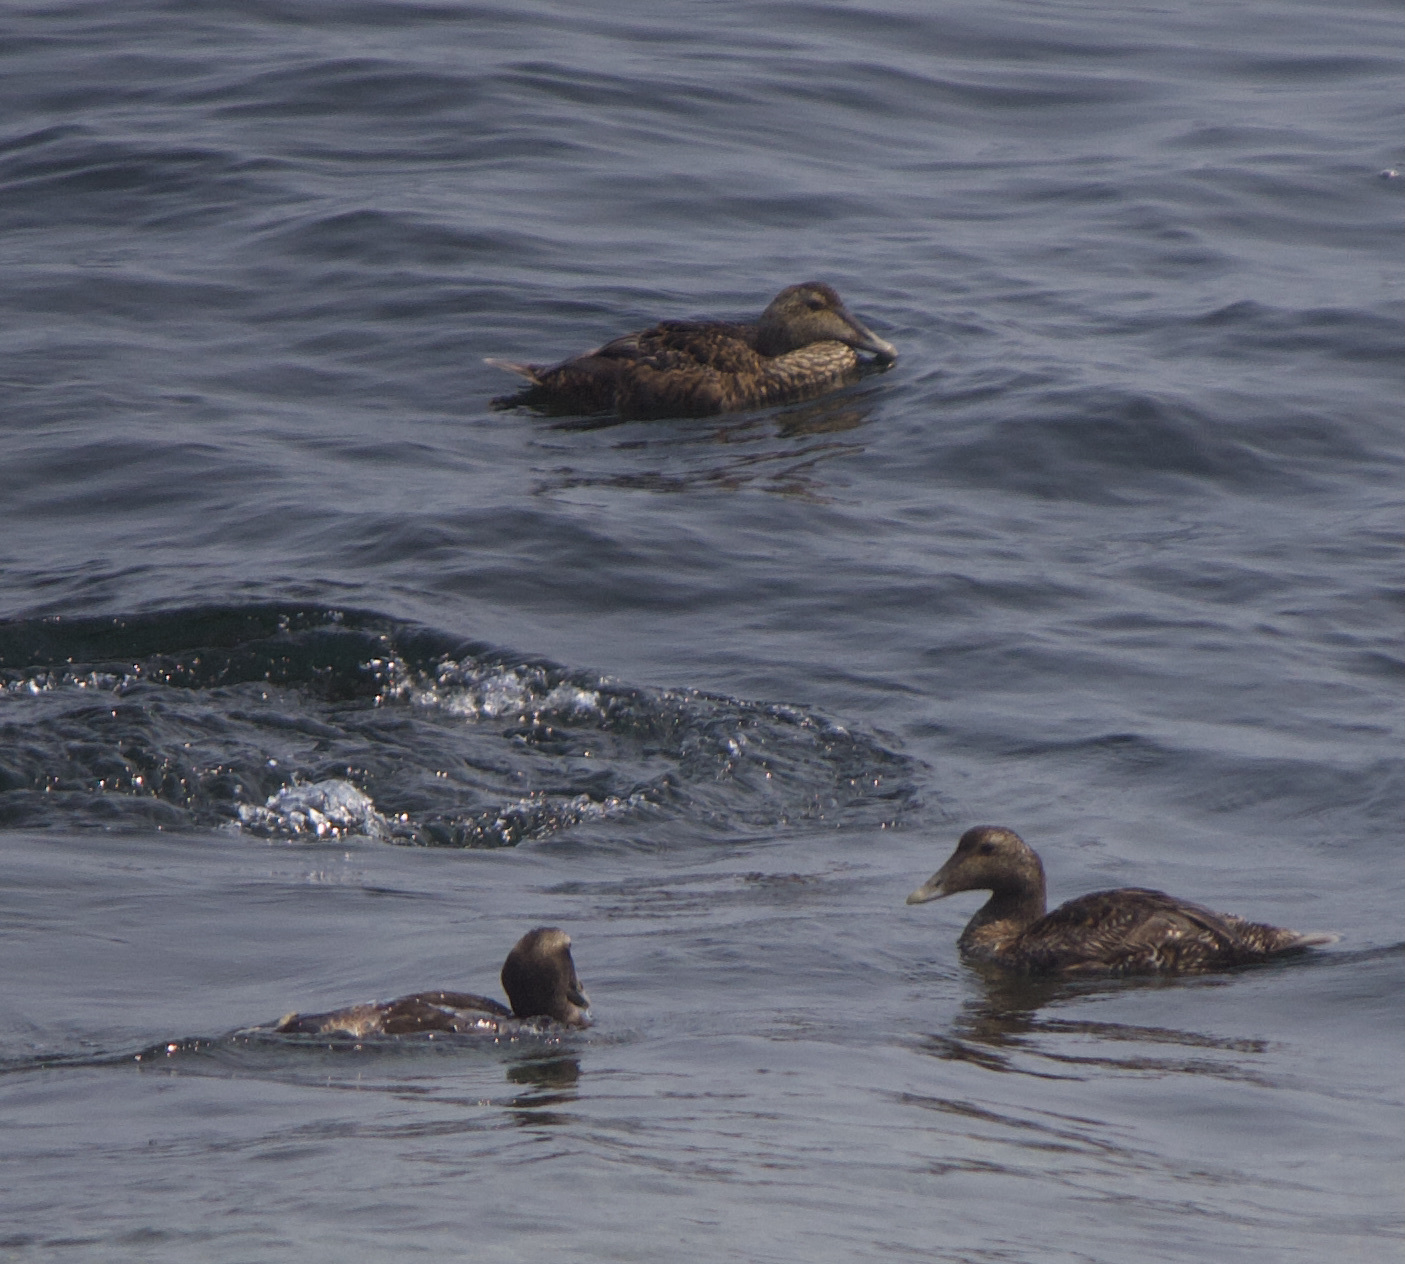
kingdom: Animalia
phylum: Chordata
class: Aves
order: Anseriformes
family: Anatidae
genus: Somateria
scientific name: Somateria mollissima
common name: Common eider
